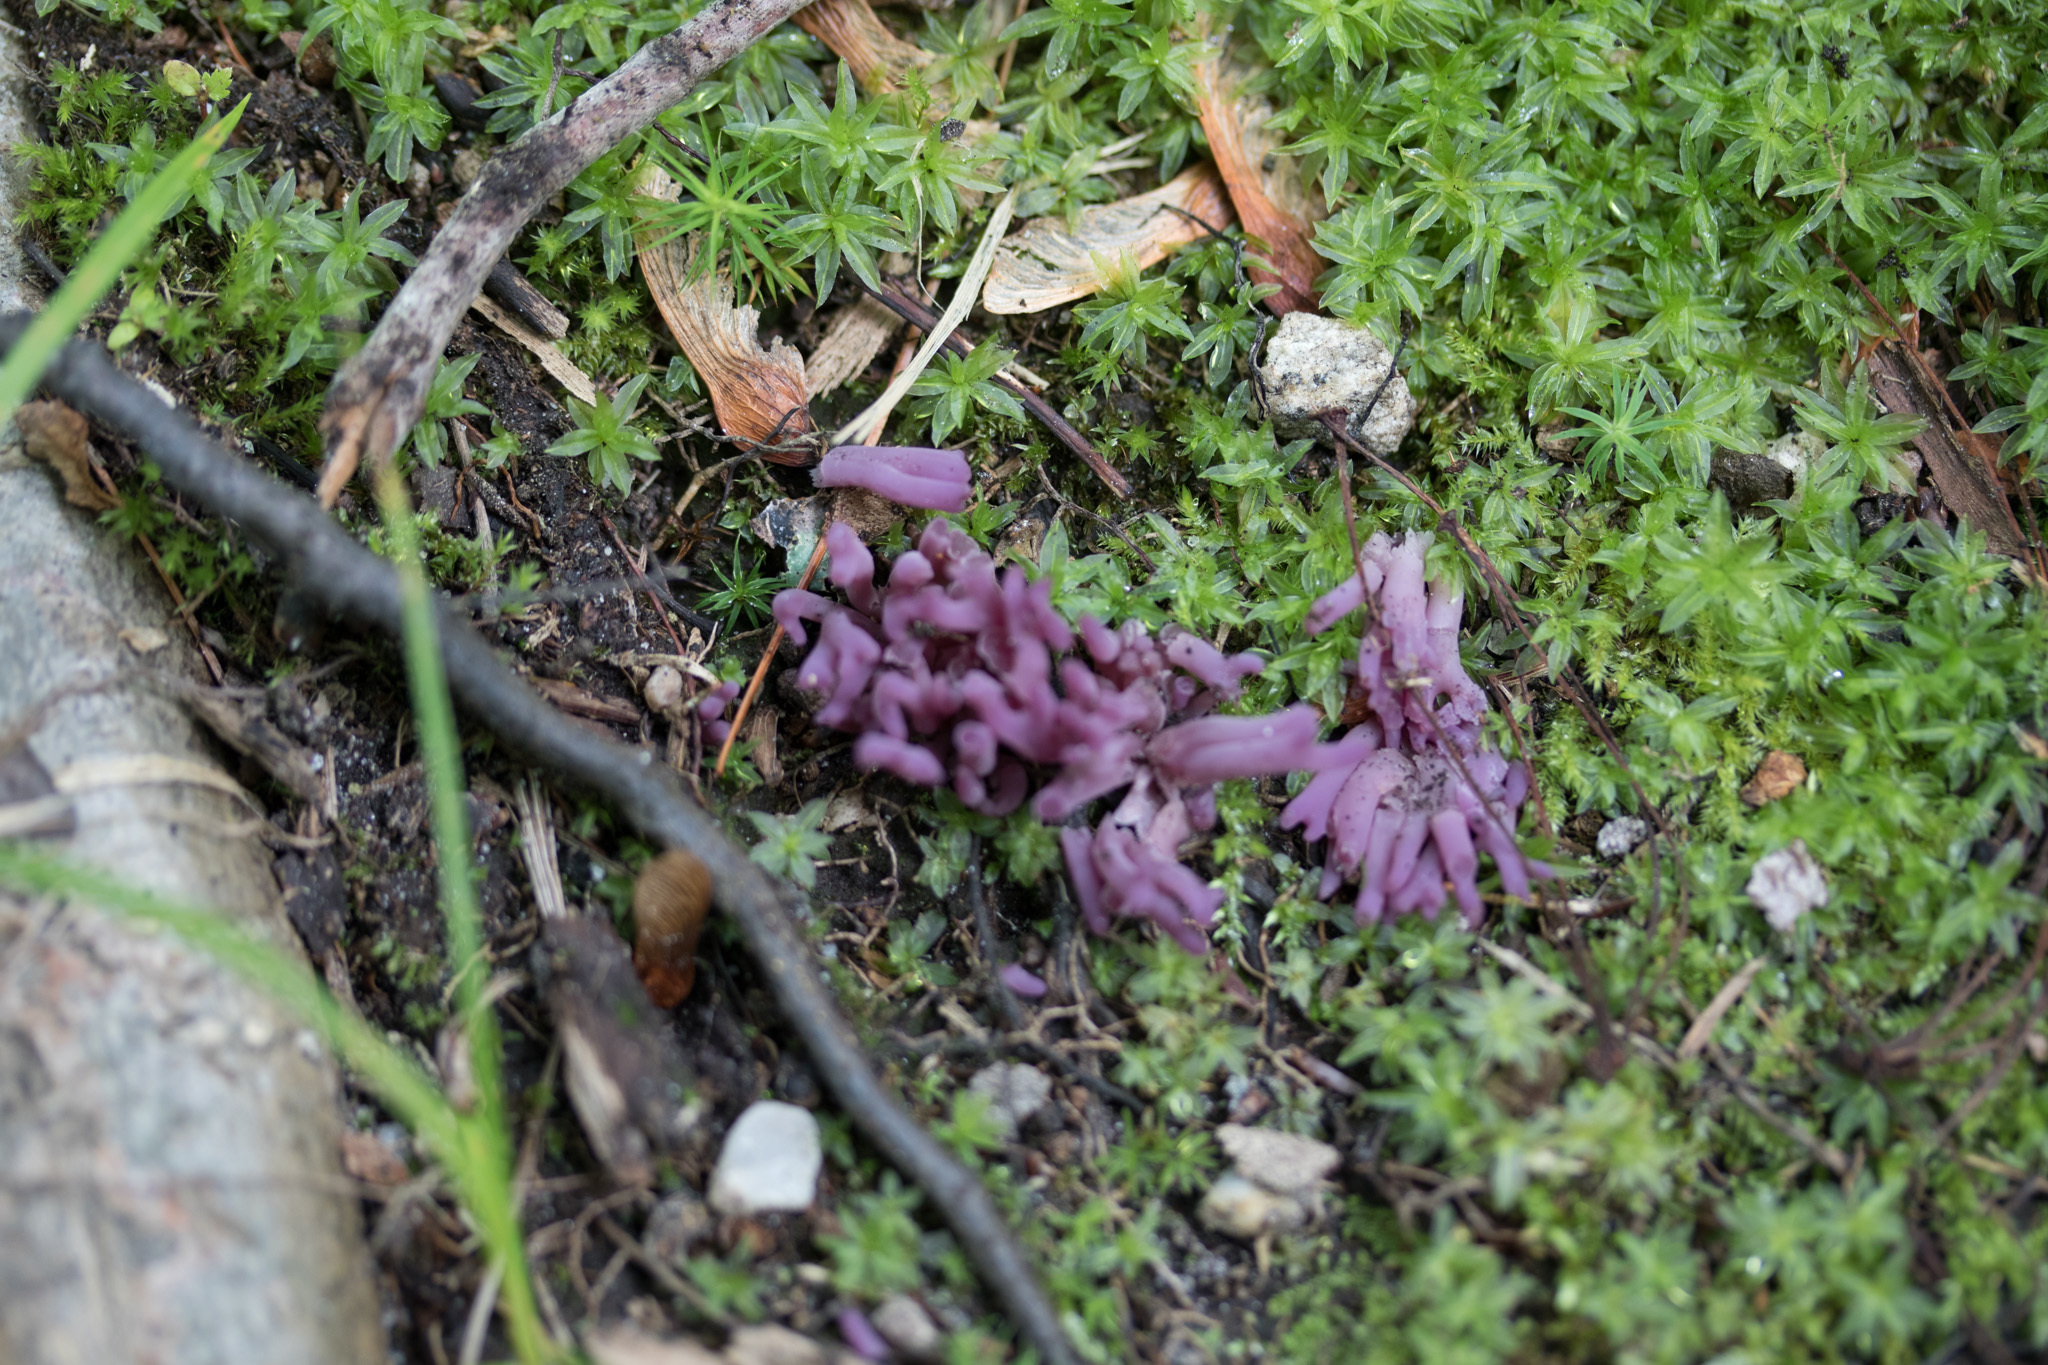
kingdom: Fungi
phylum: Basidiomycota
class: Agaricomycetes
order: Agaricales
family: Clavariaceae
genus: Clavaria
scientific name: Clavaria zollingeri
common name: Violet coral
